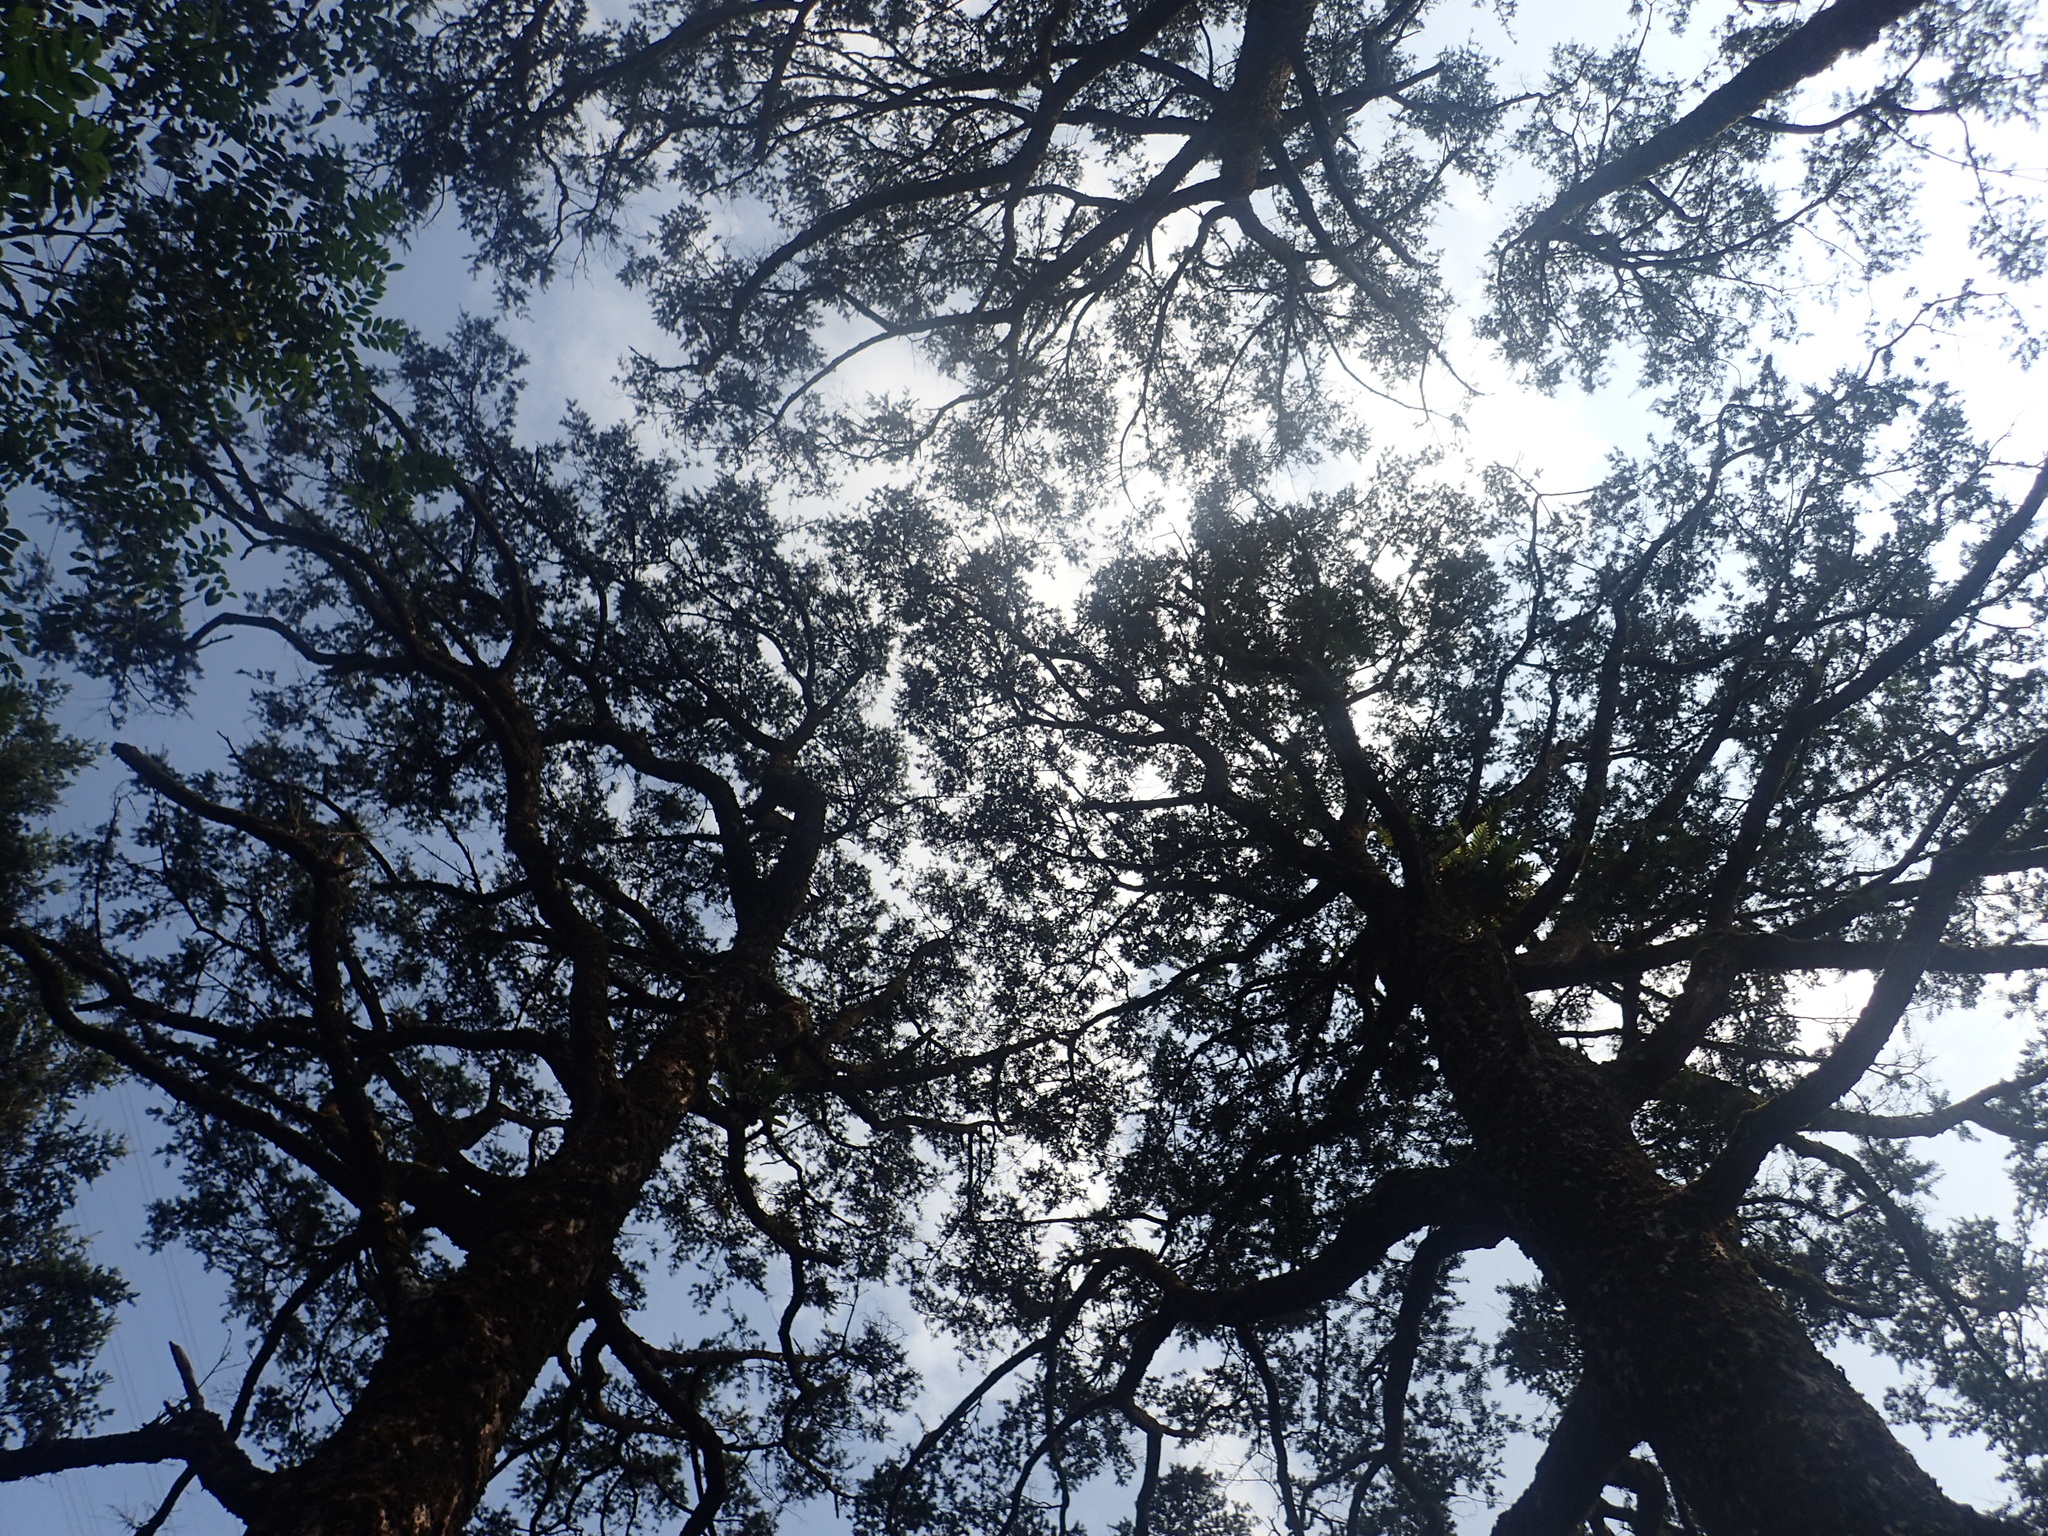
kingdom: Plantae
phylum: Tracheophyta
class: Pinopsida
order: Pinales
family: Pinaceae
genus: Keteleeria
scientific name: Keteleeria davidiana
